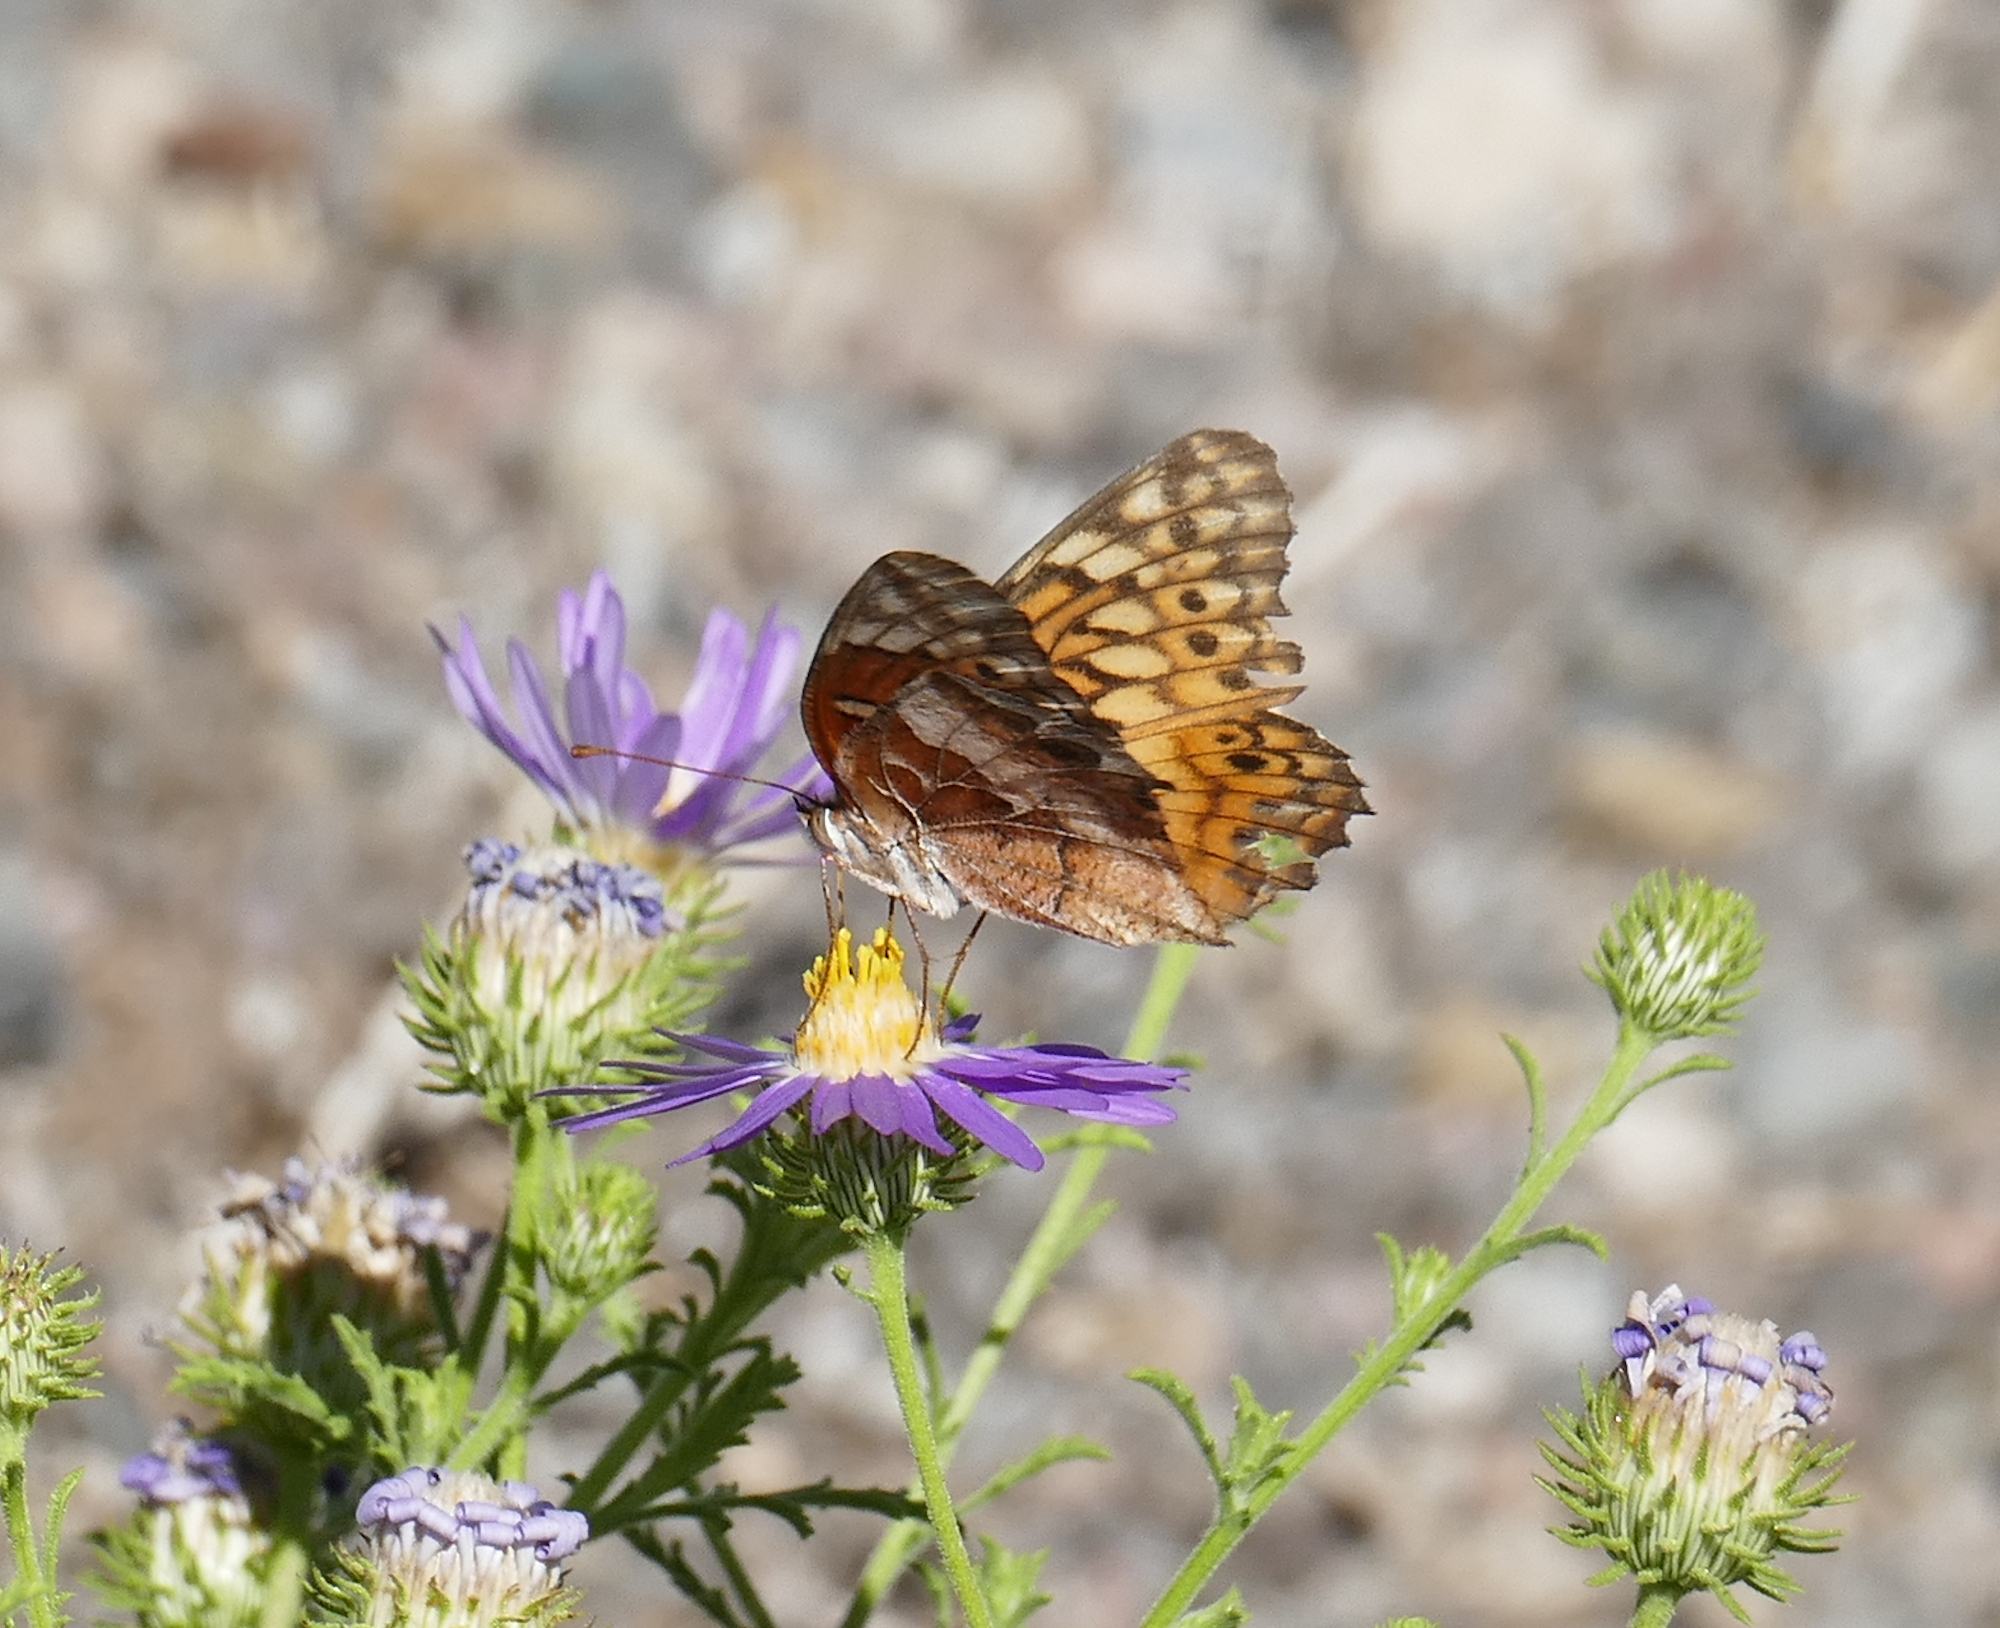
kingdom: Animalia
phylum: Arthropoda
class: Insecta
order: Lepidoptera
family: Nymphalidae
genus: Euptoieta
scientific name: Euptoieta claudia
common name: Variegated fritillary
